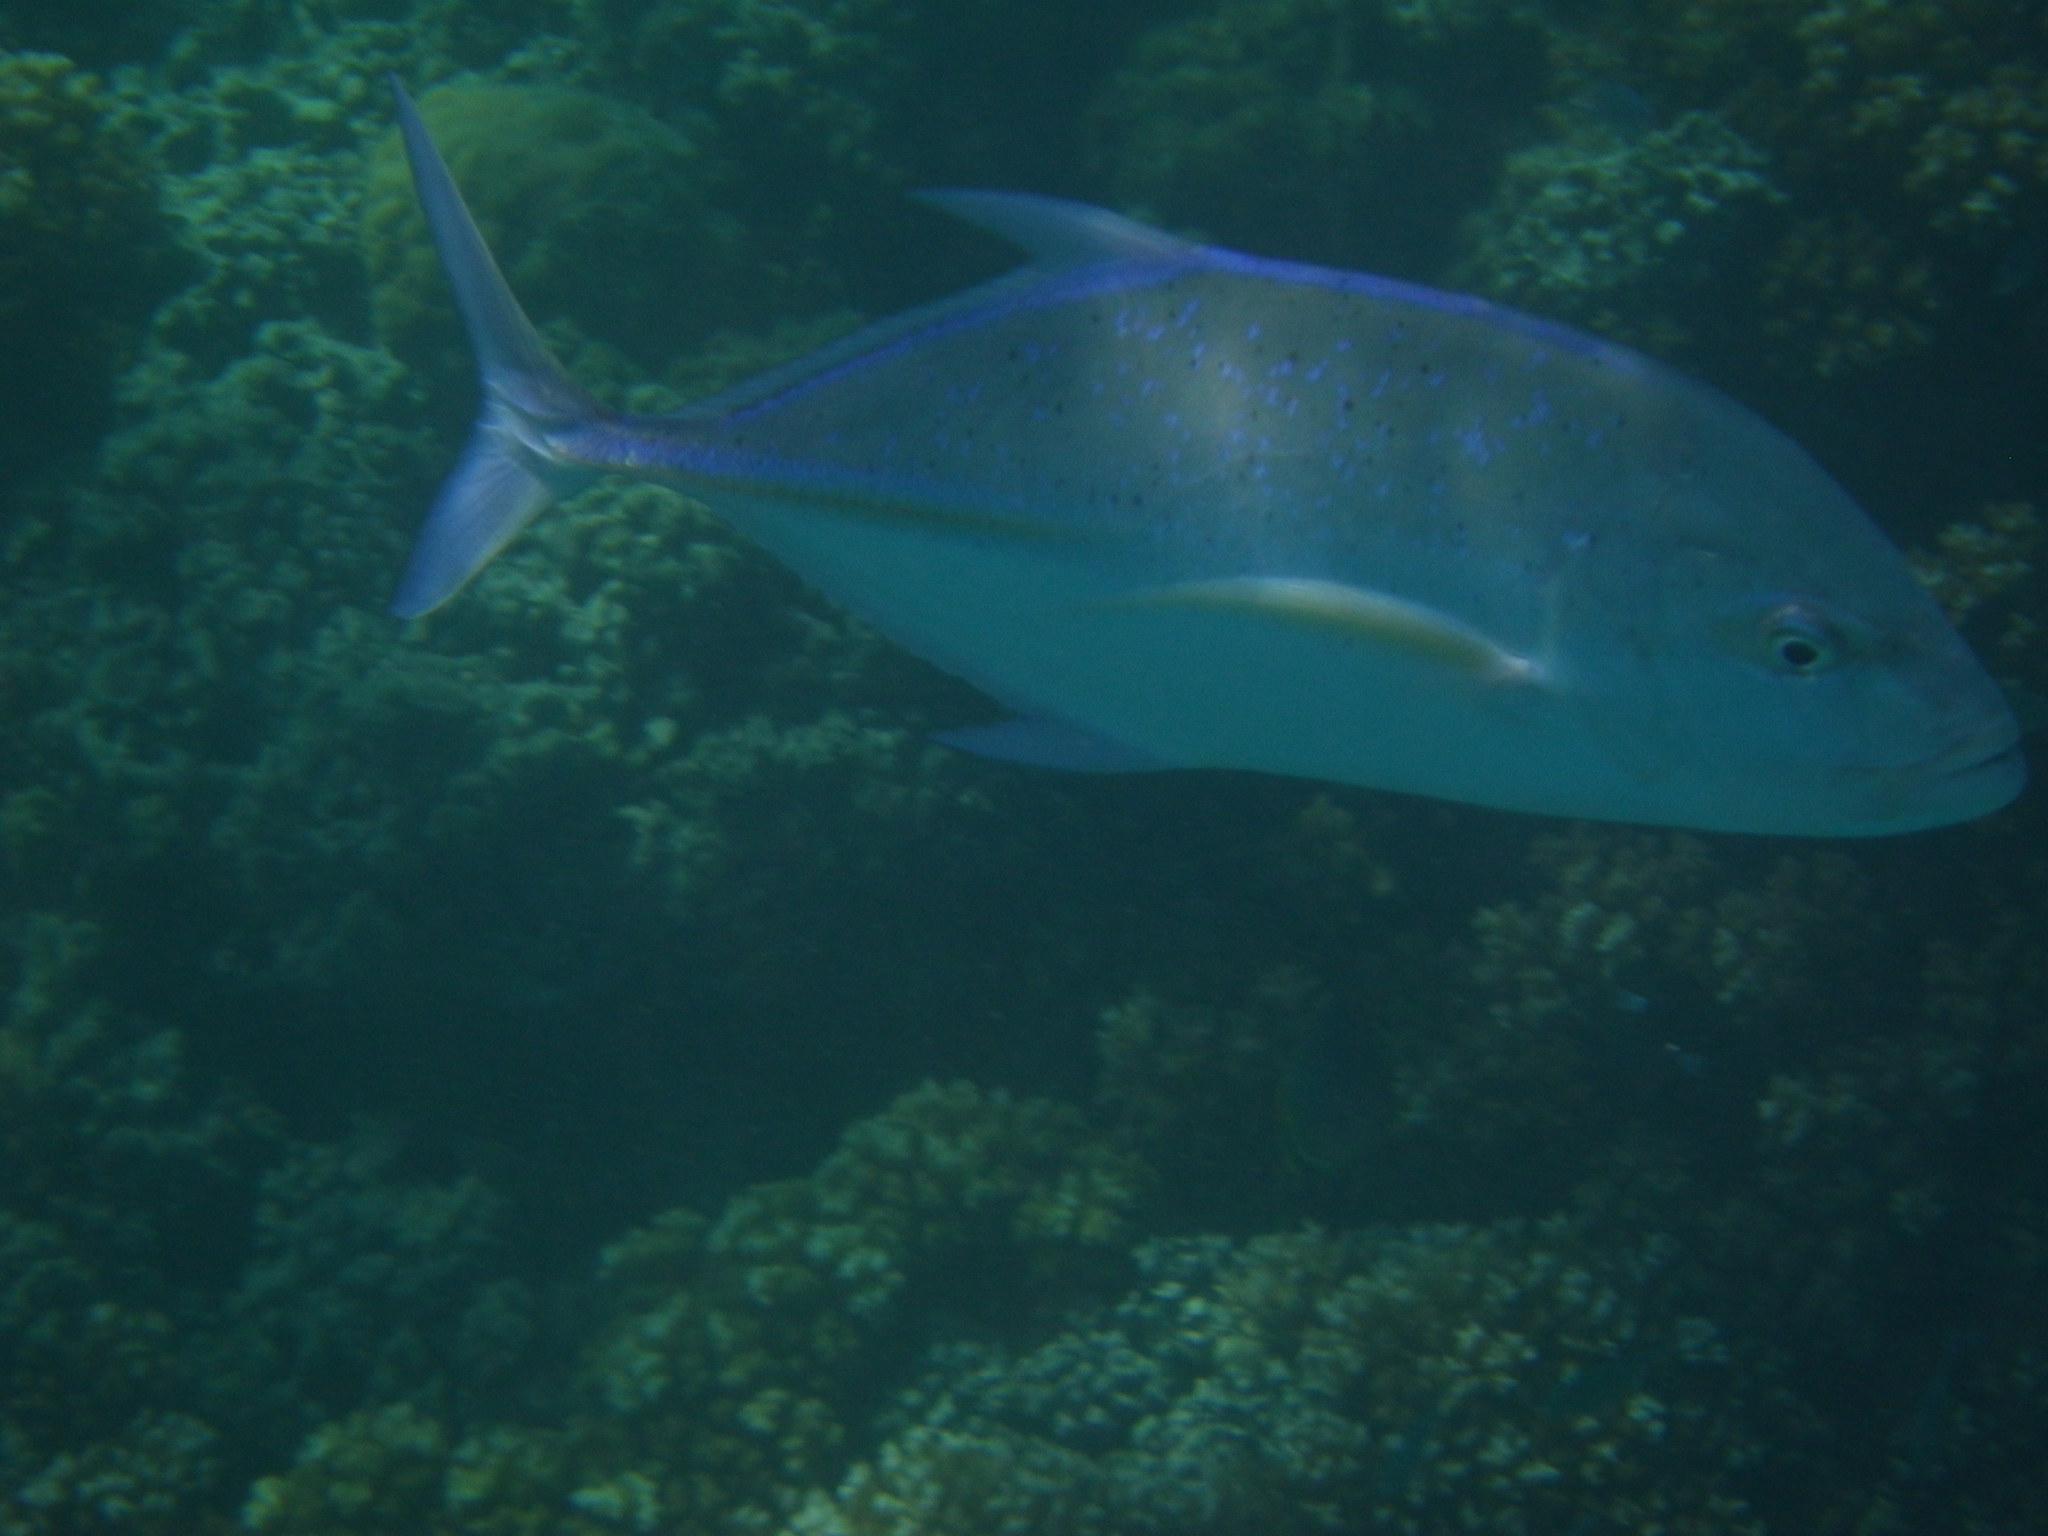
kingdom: Animalia
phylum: Chordata
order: Perciformes
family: Carangidae
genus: Caranx
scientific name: Caranx melampygus
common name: Bluefin trevally
